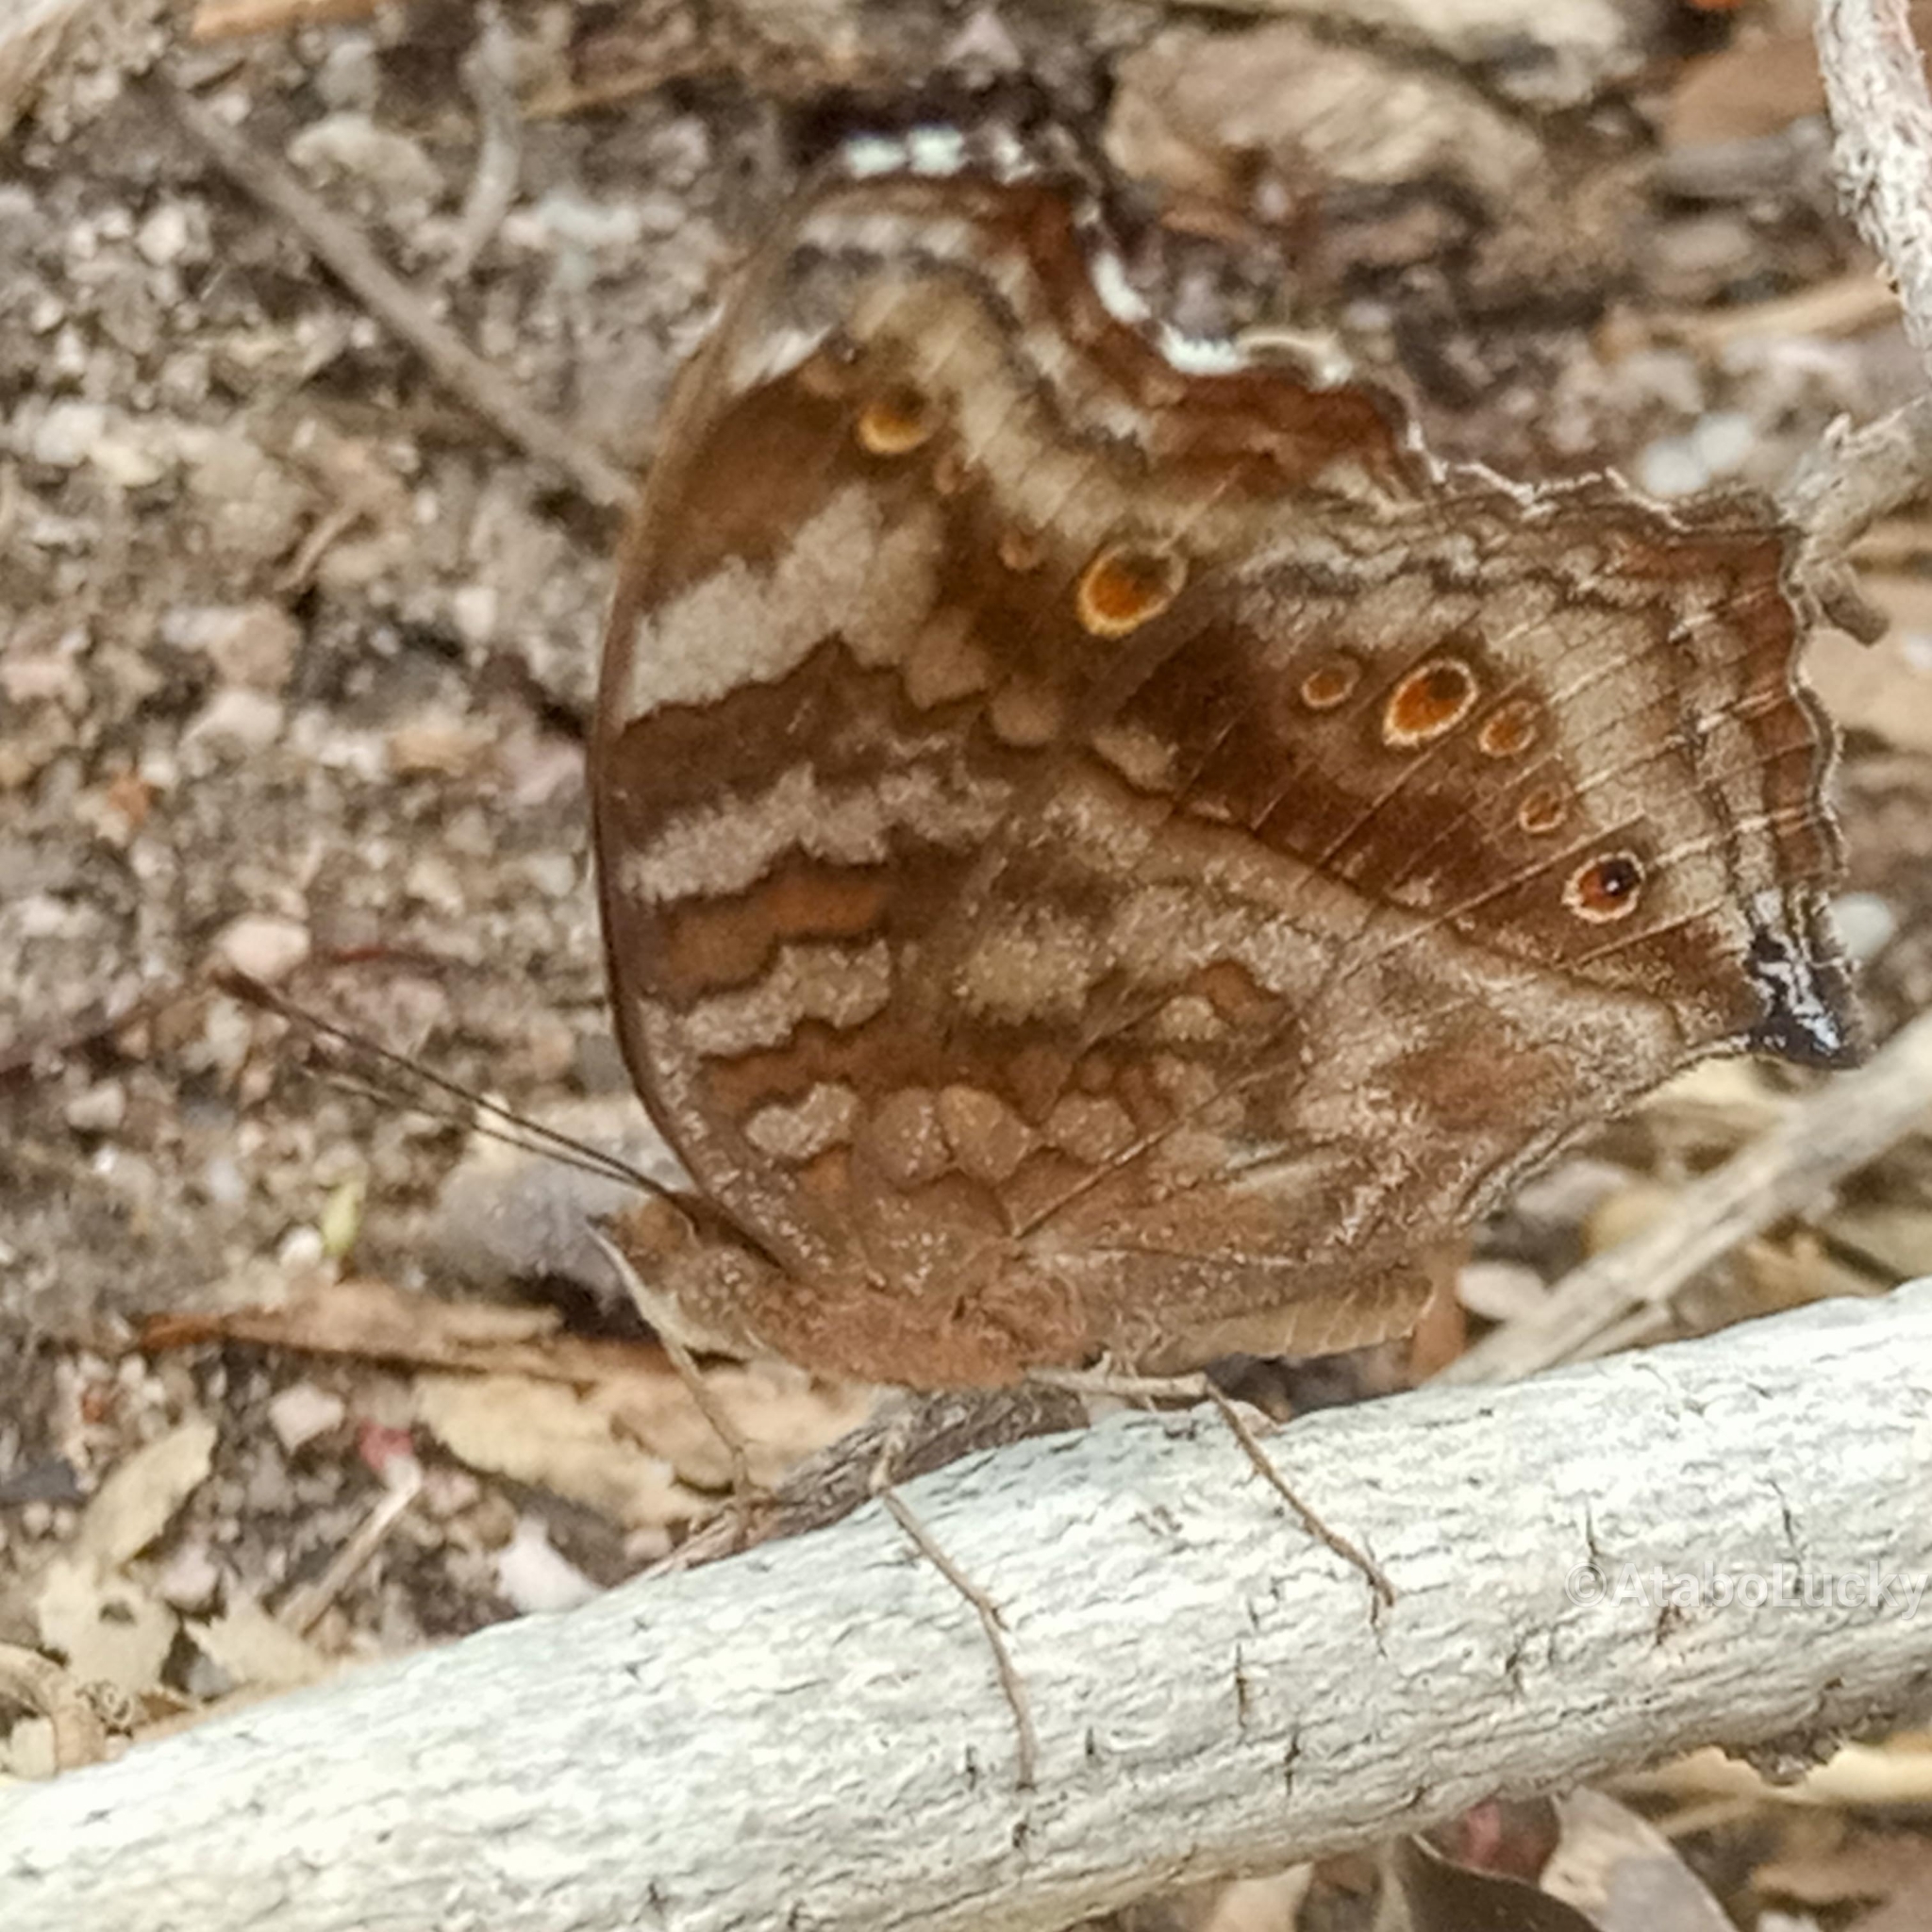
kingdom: Animalia
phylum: Arthropoda
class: Insecta
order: Lepidoptera
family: Nymphalidae
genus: Junonia
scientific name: Junonia chorimene
